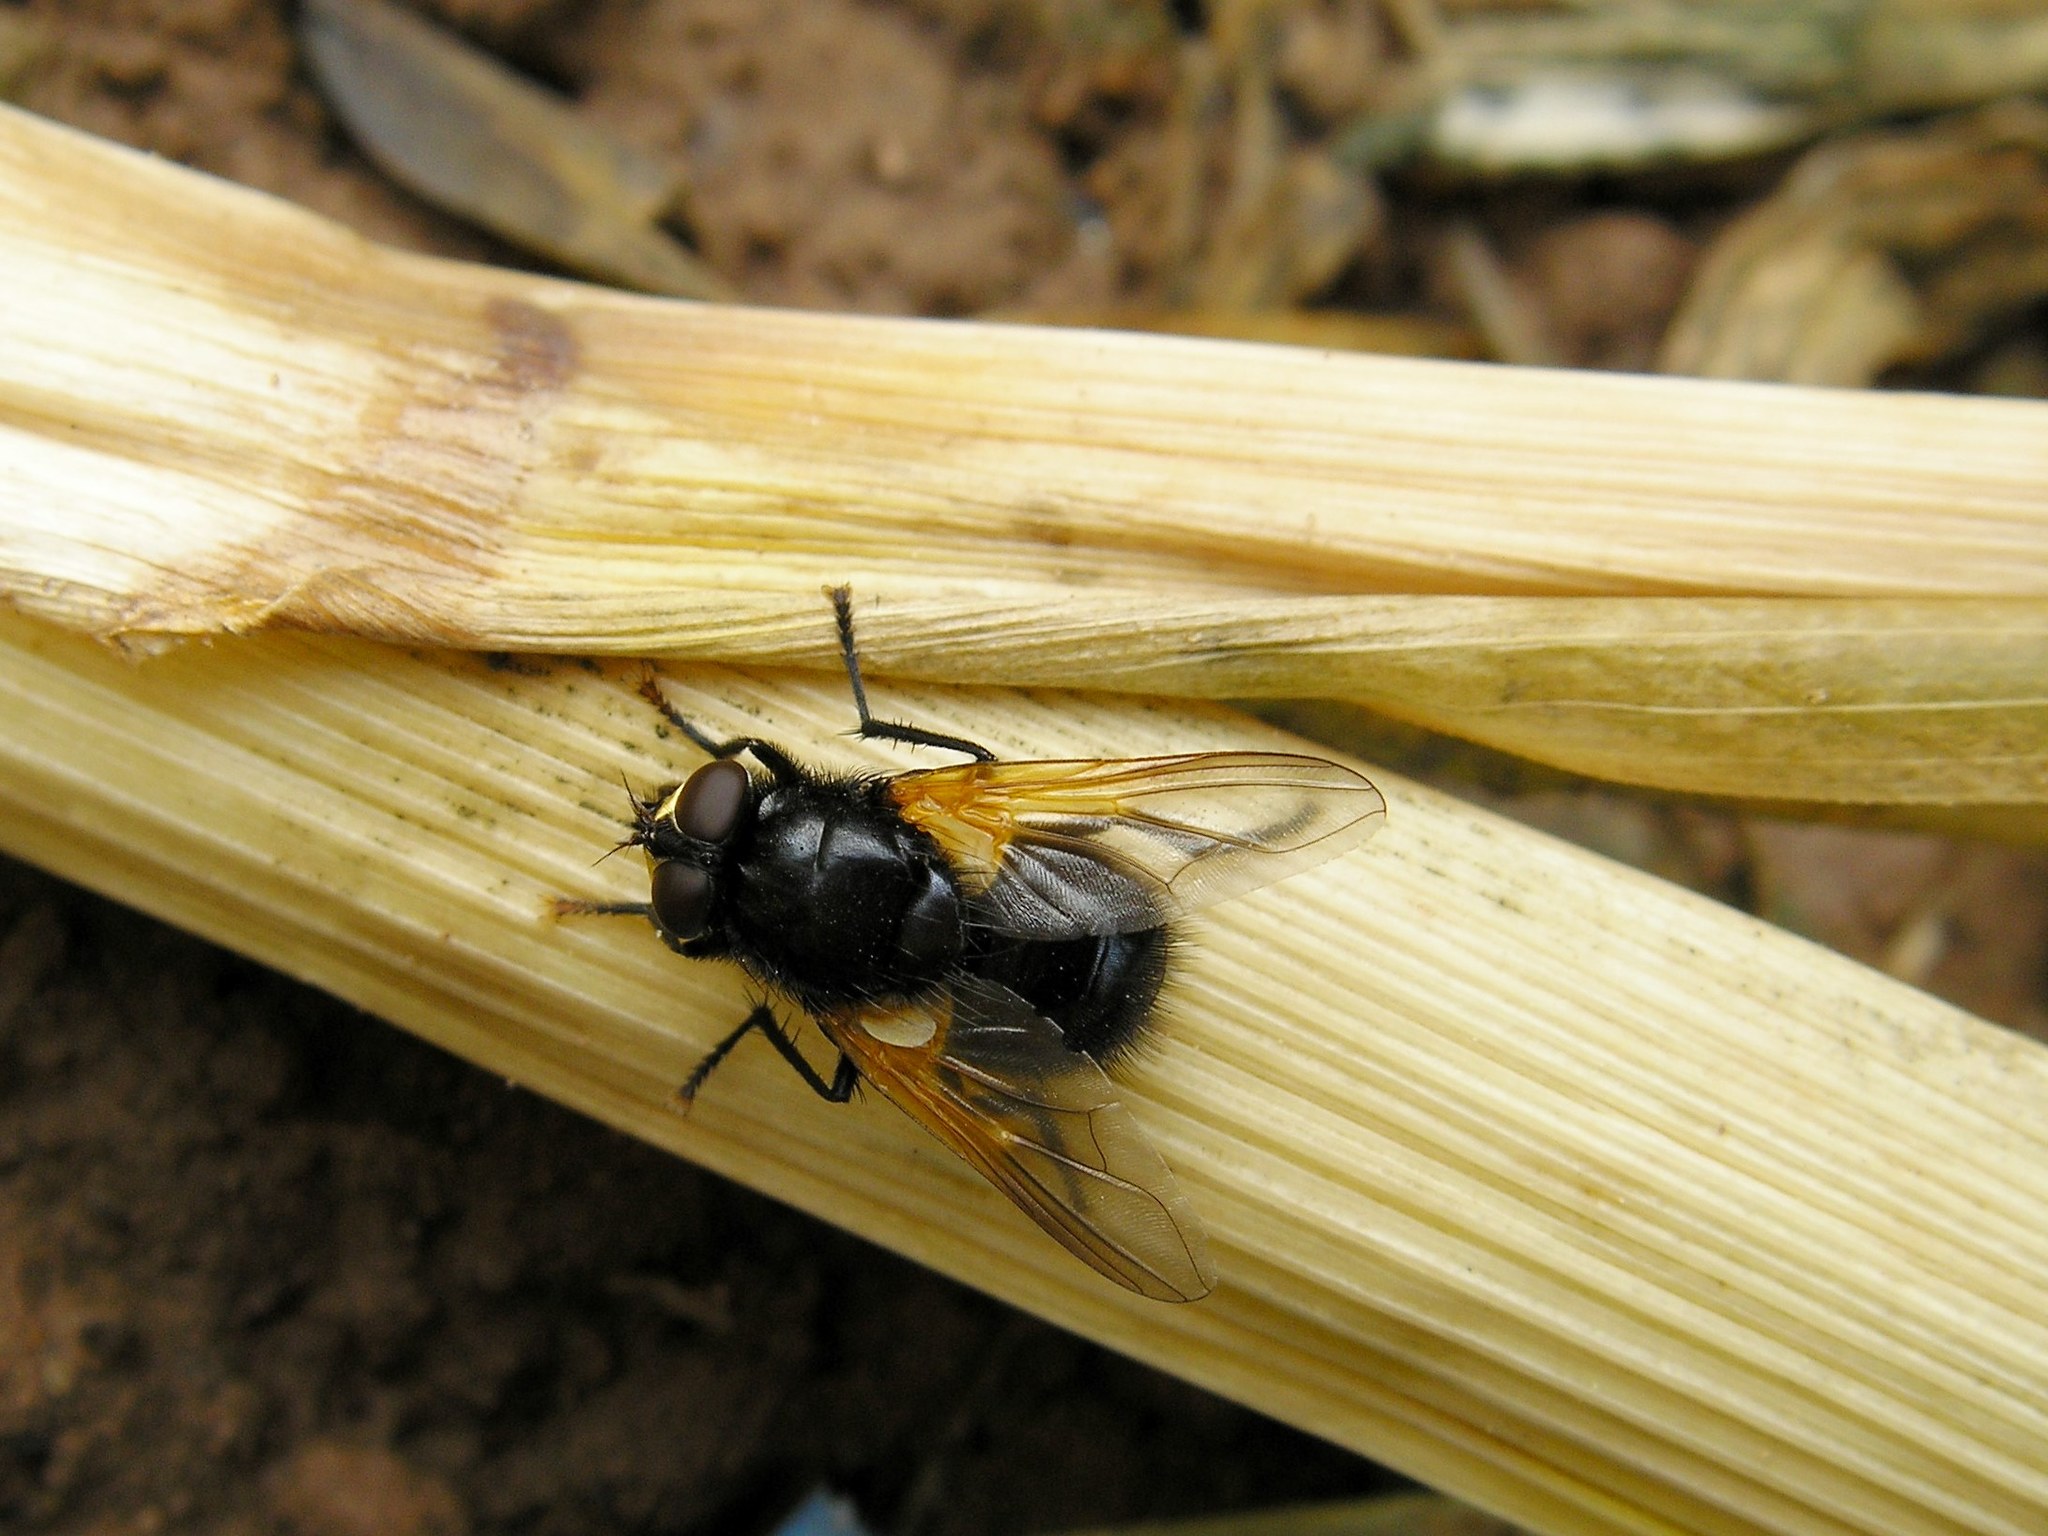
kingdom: Animalia
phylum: Arthropoda
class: Insecta
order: Diptera
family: Muscidae
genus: Mesembrina
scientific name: Mesembrina meridiana
